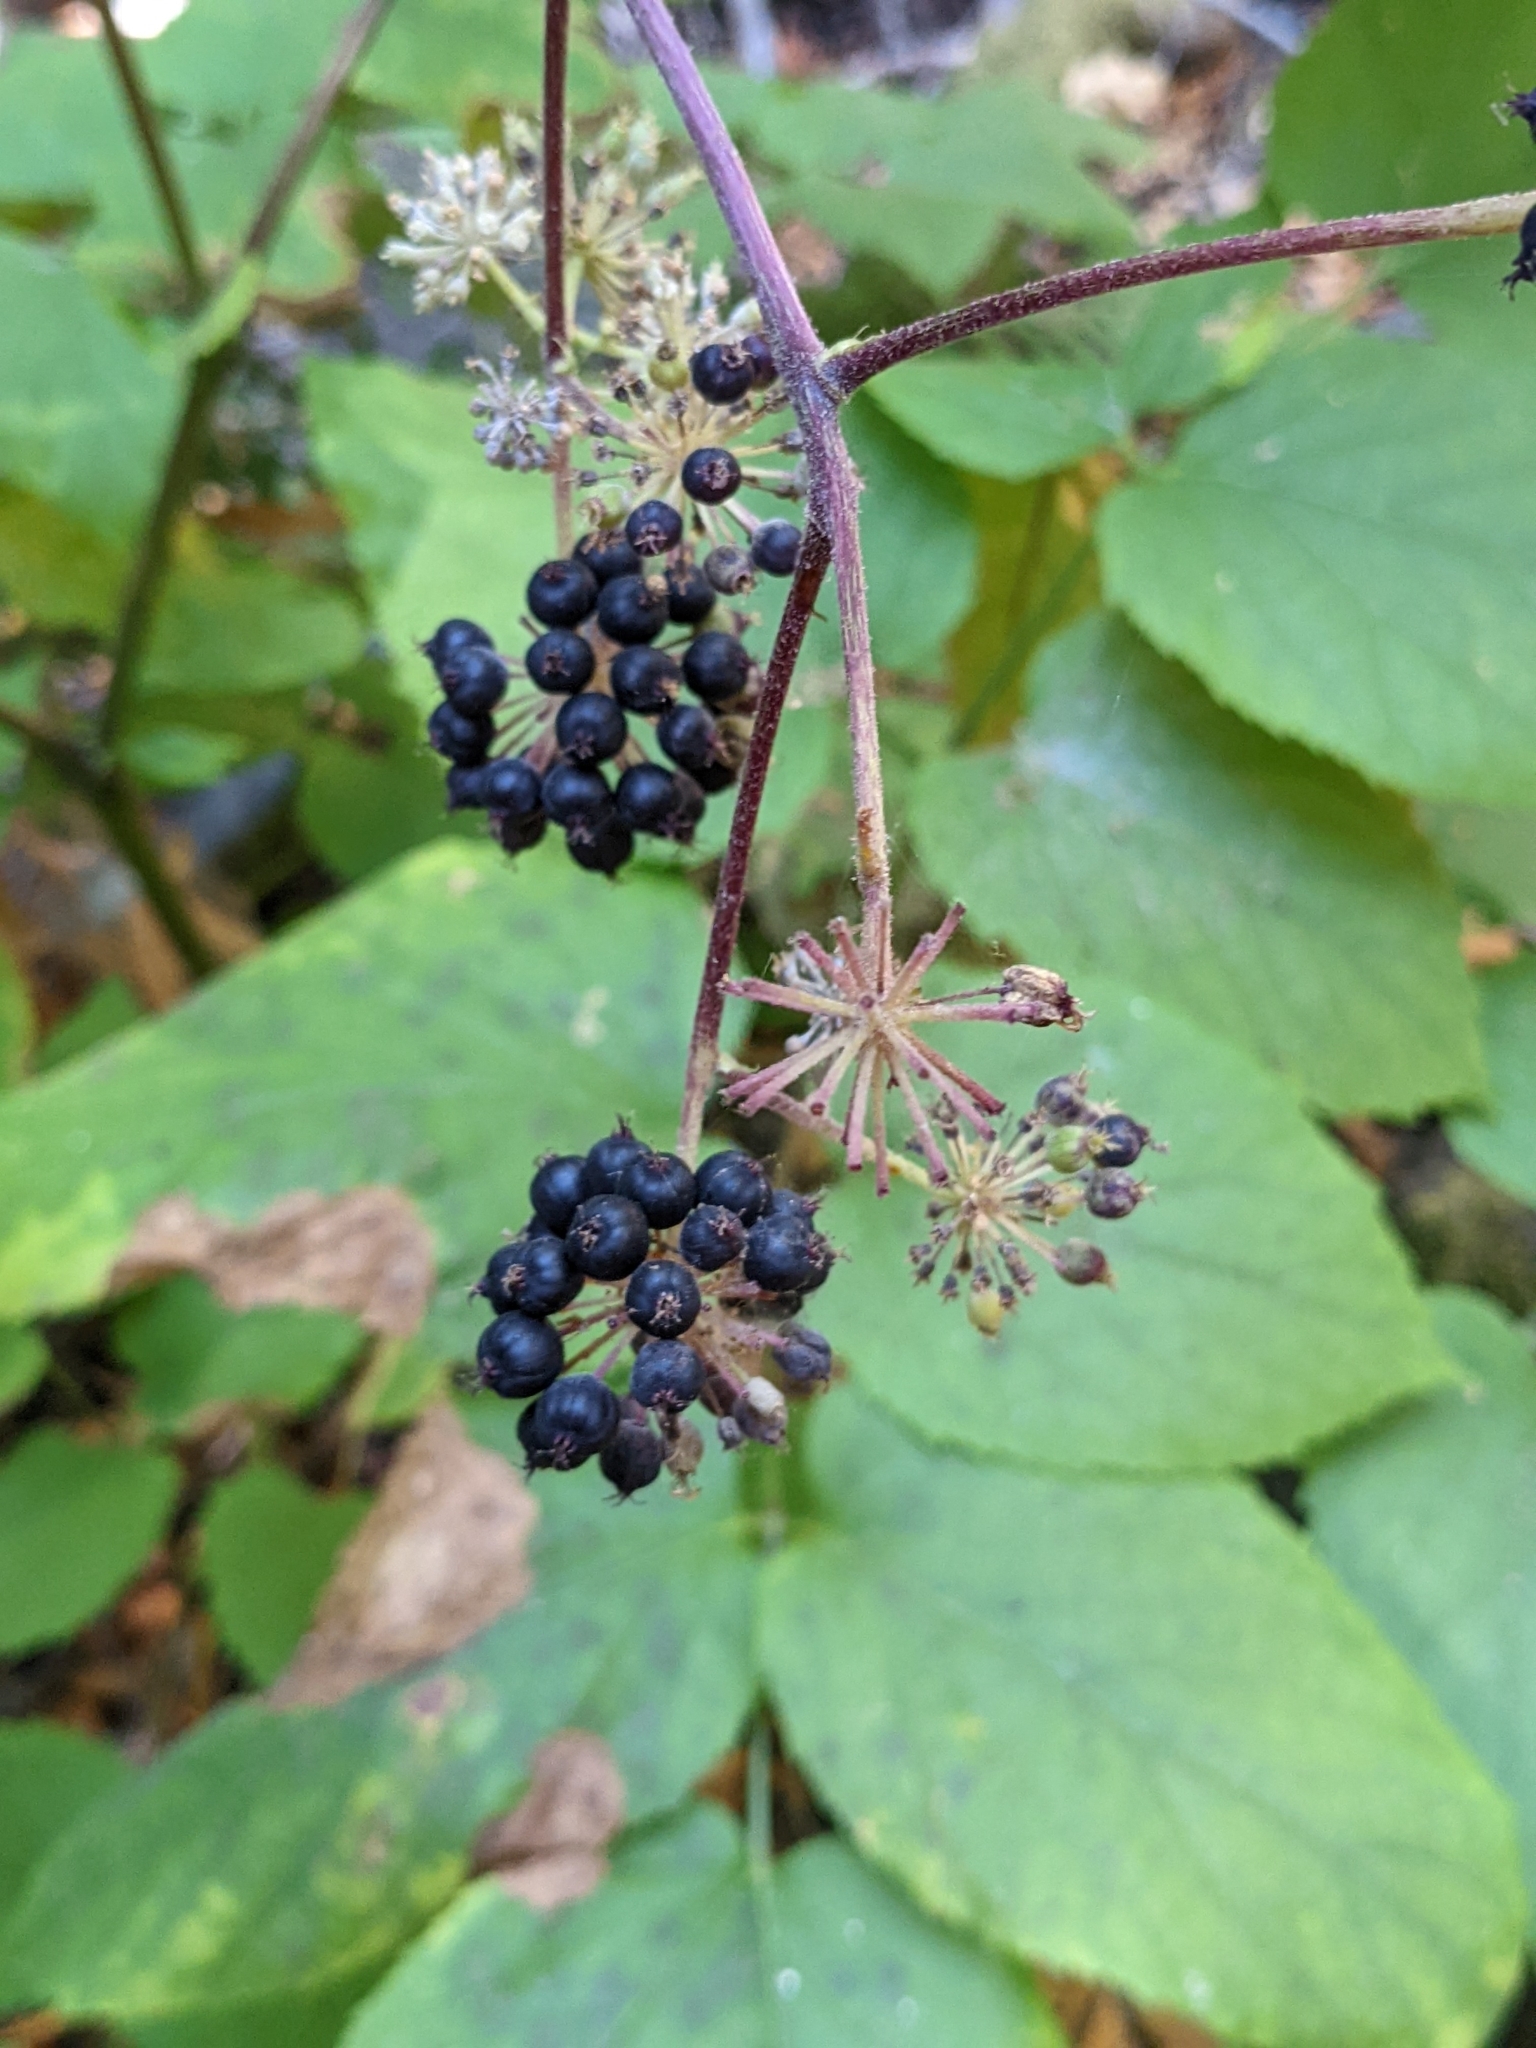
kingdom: Plantae
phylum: Tracheophyta
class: Magnoliopsida
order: Apiales
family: Araliaceae
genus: Aralia
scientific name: Aralia californica
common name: California-ginseng
